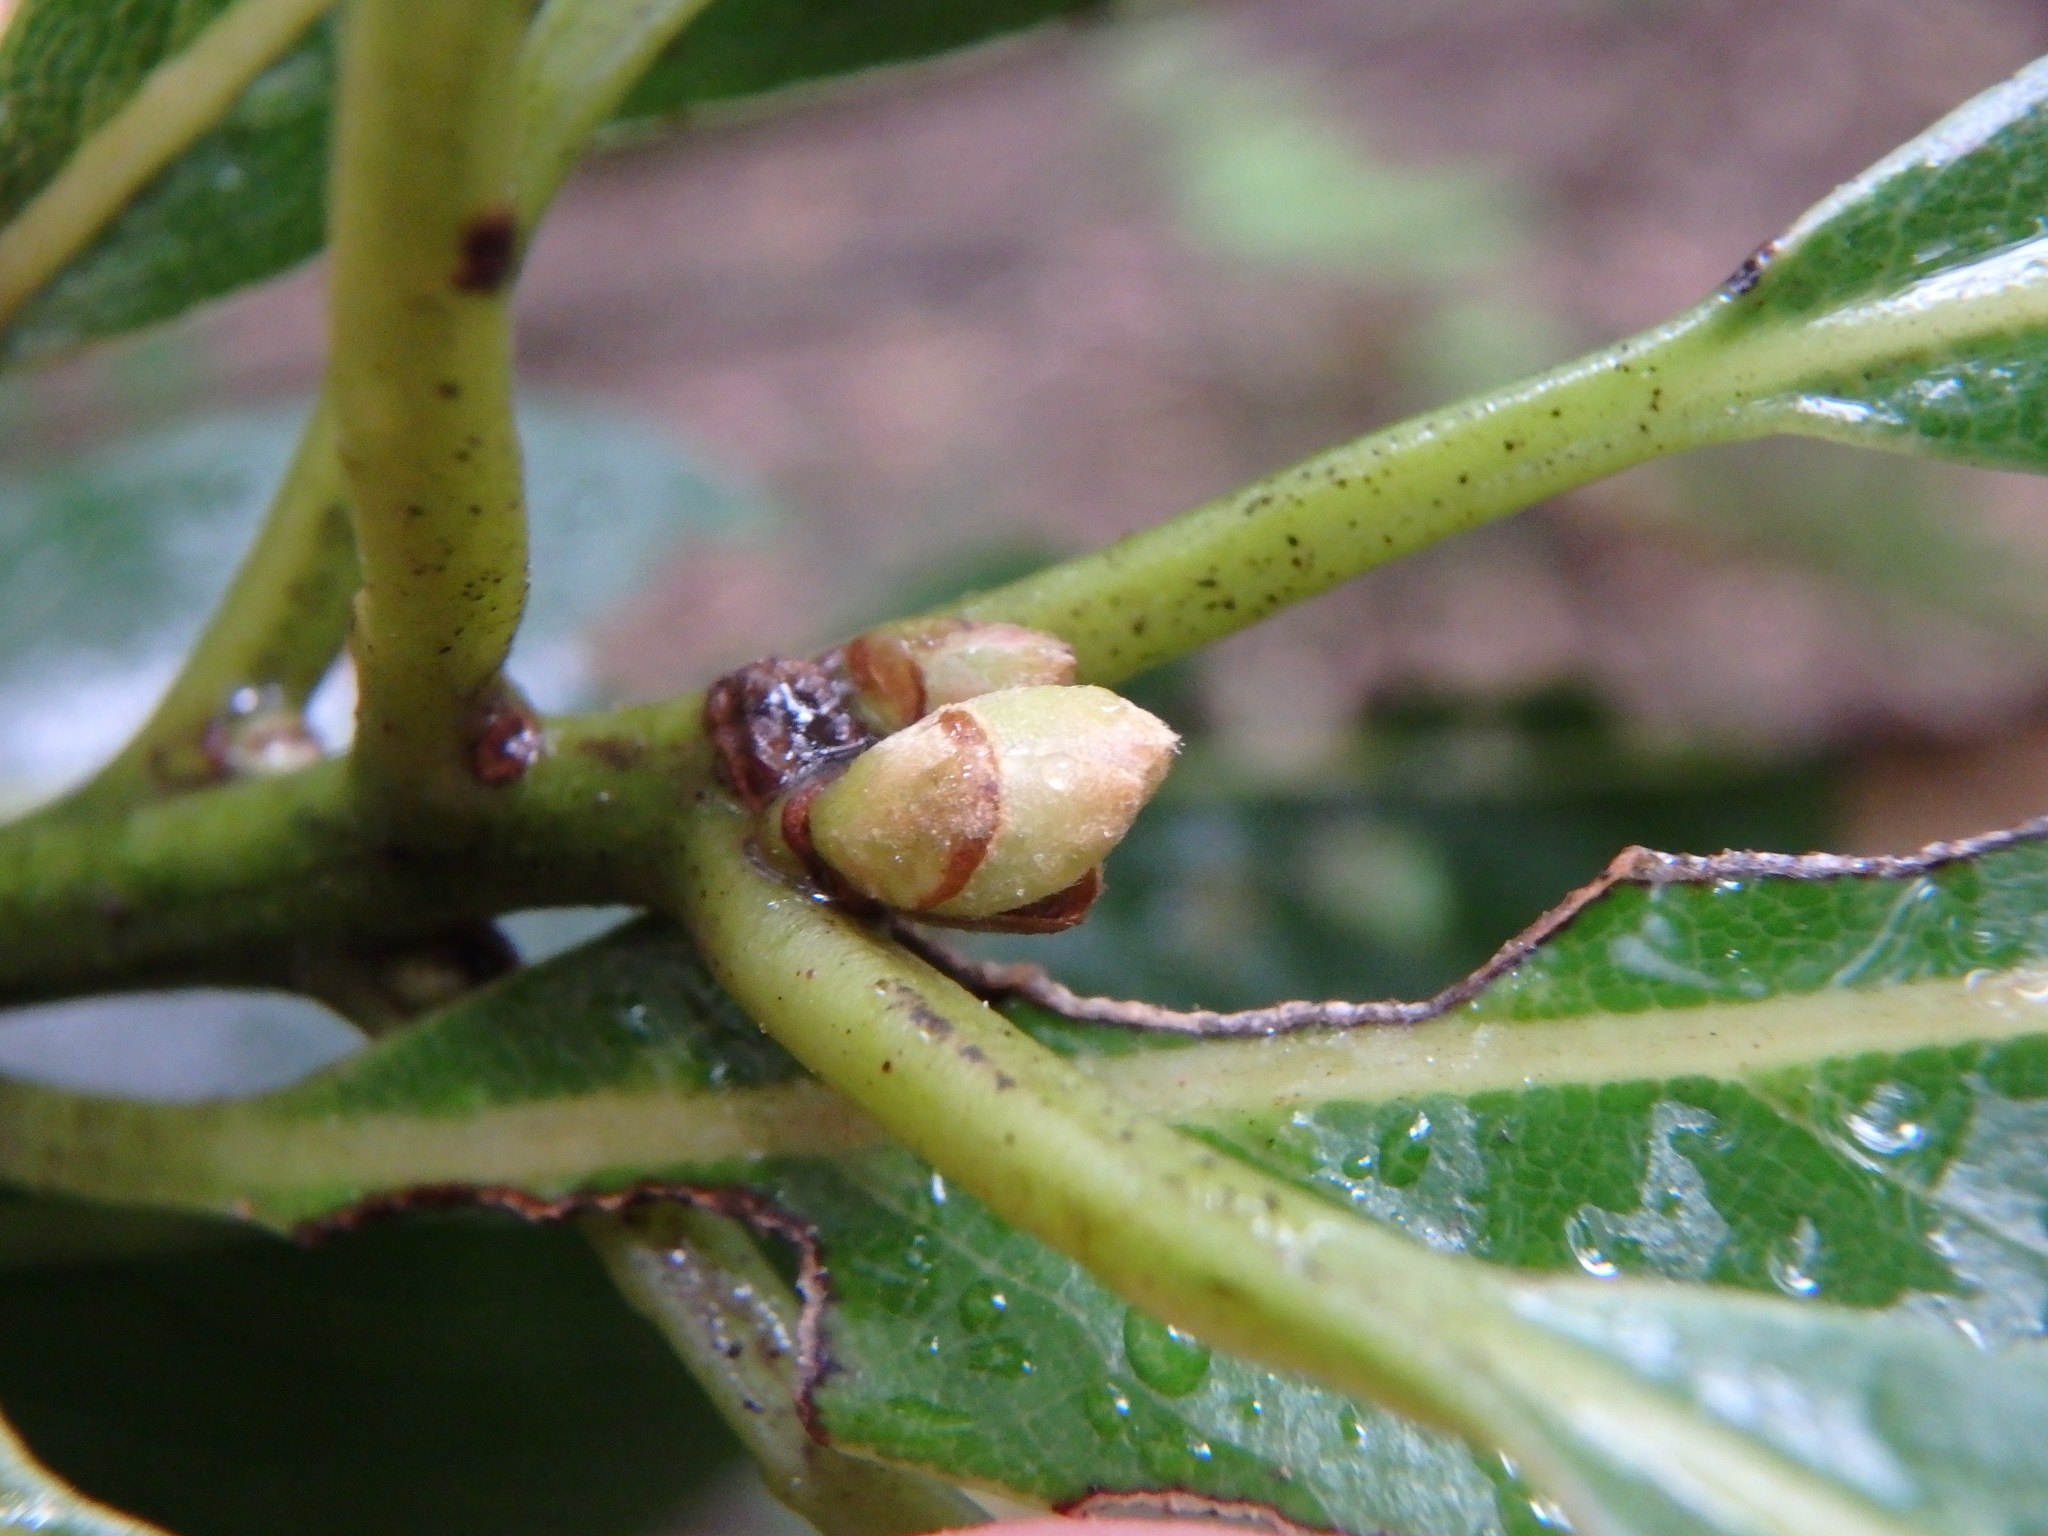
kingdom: Plantae
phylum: Tracheophyta
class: Magnoliopsida
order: Laurales
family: Lauraceae
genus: Laurus
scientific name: Laurus novocanariensis
